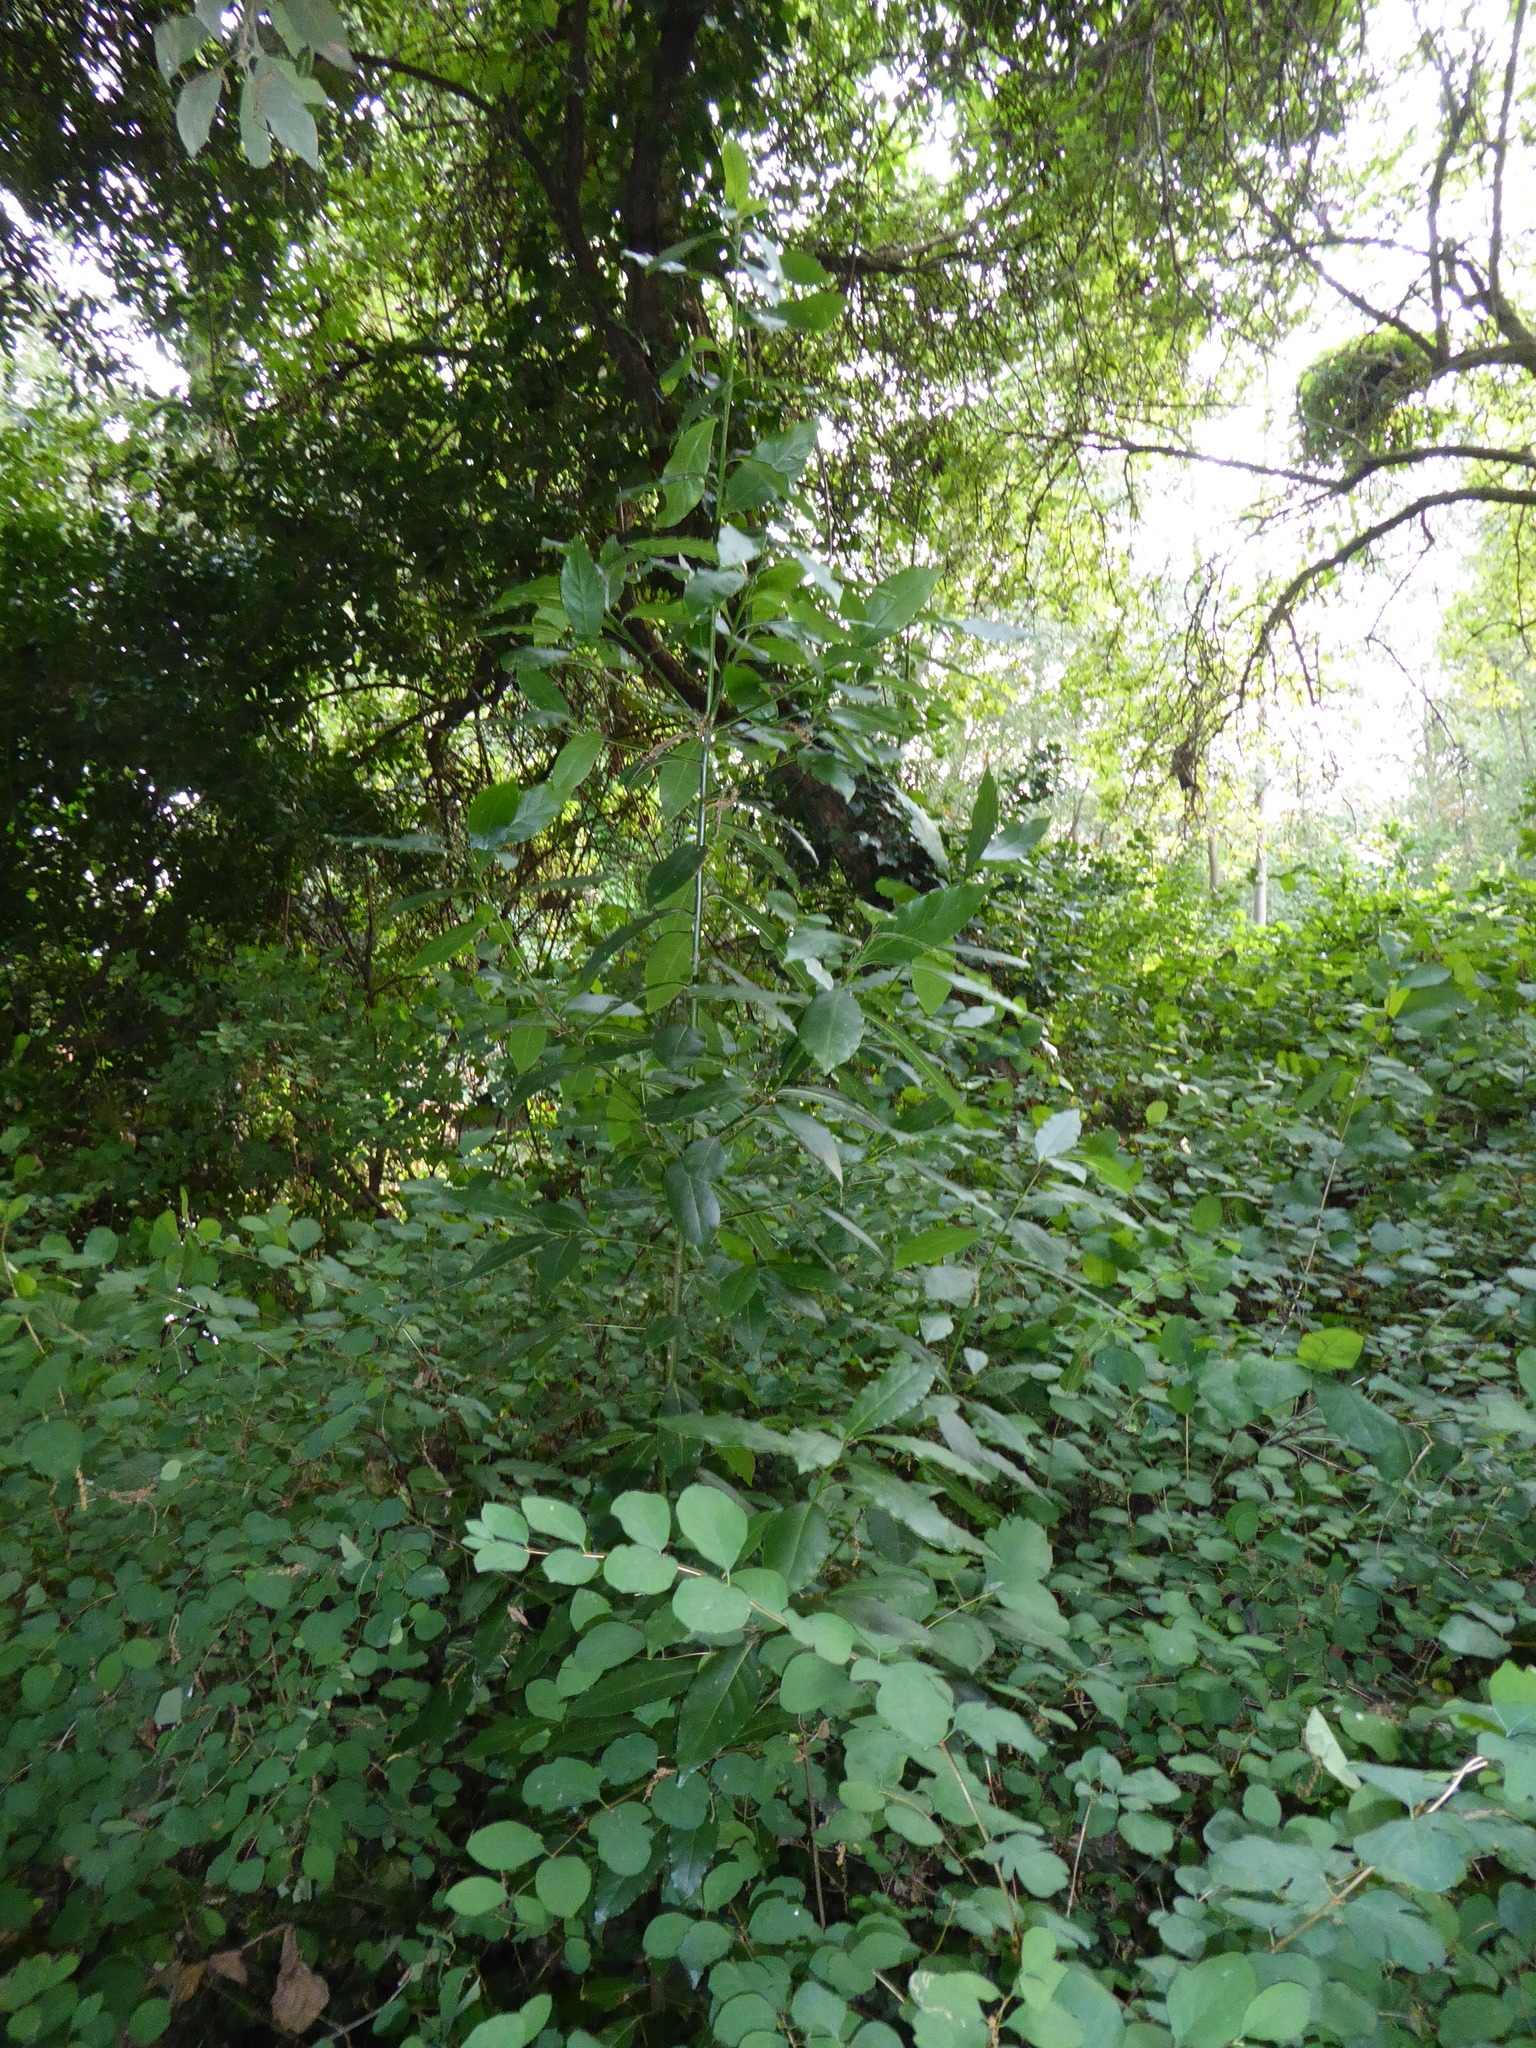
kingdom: Plantae
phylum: Tracheophyta
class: Magnoliopsida
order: Laurales
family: Lauraceae
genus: Laurus
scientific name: Laurus nobilis
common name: Bay
